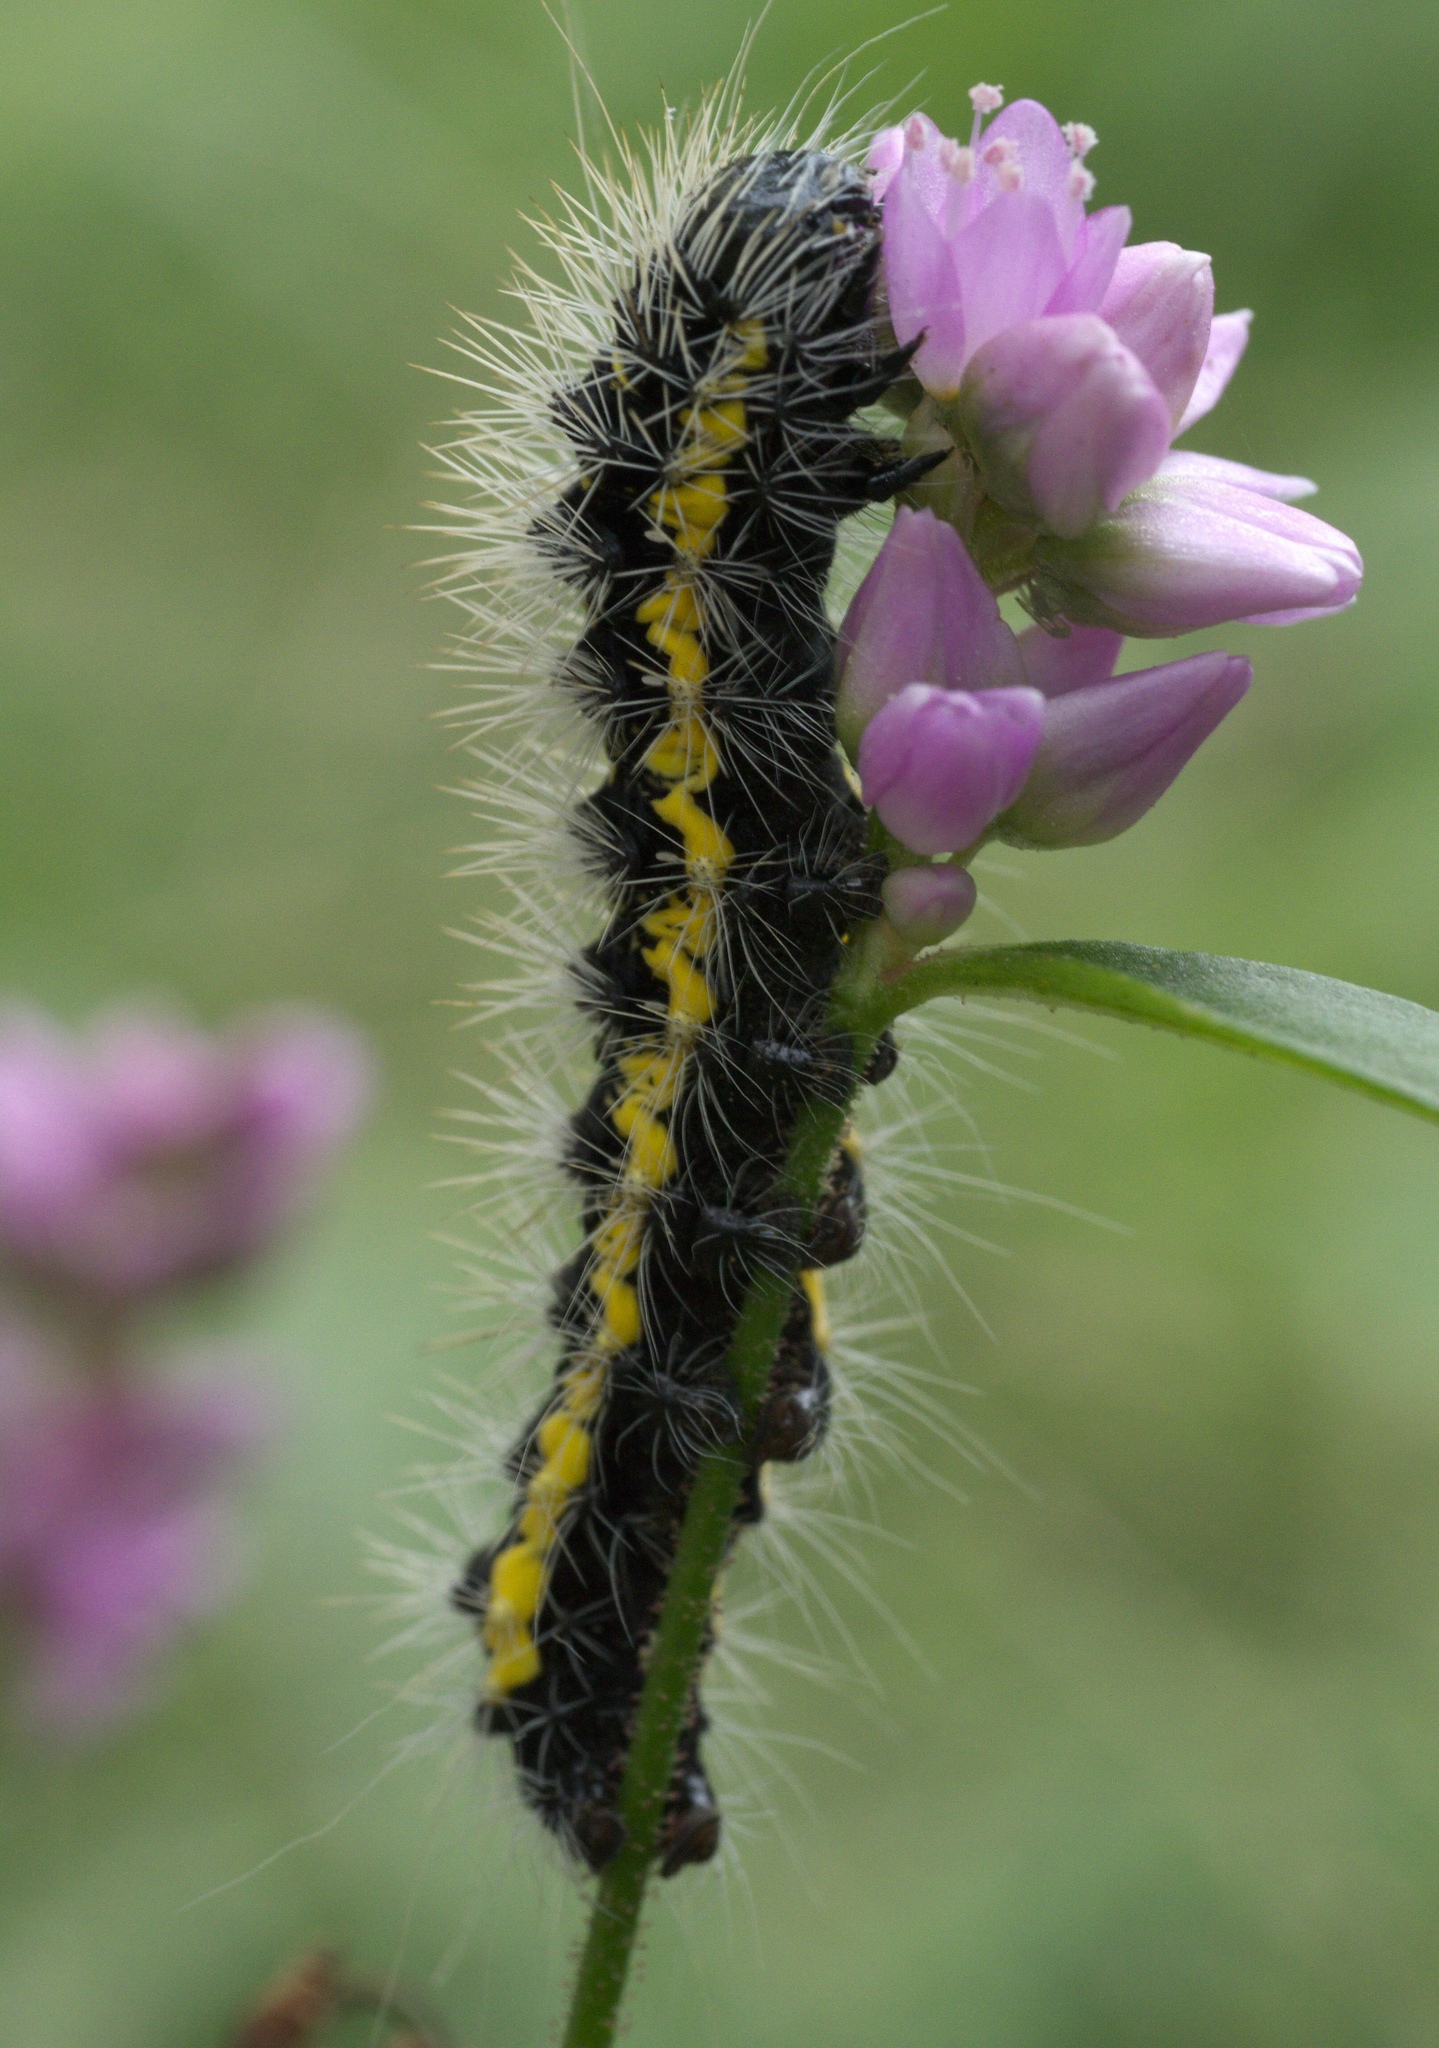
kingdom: Animalia
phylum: Arthropoda
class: Insecta
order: Lepidoptera
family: Noctuidae
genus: Acronicta
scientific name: Acronicta oblinita
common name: Smeared dagger
